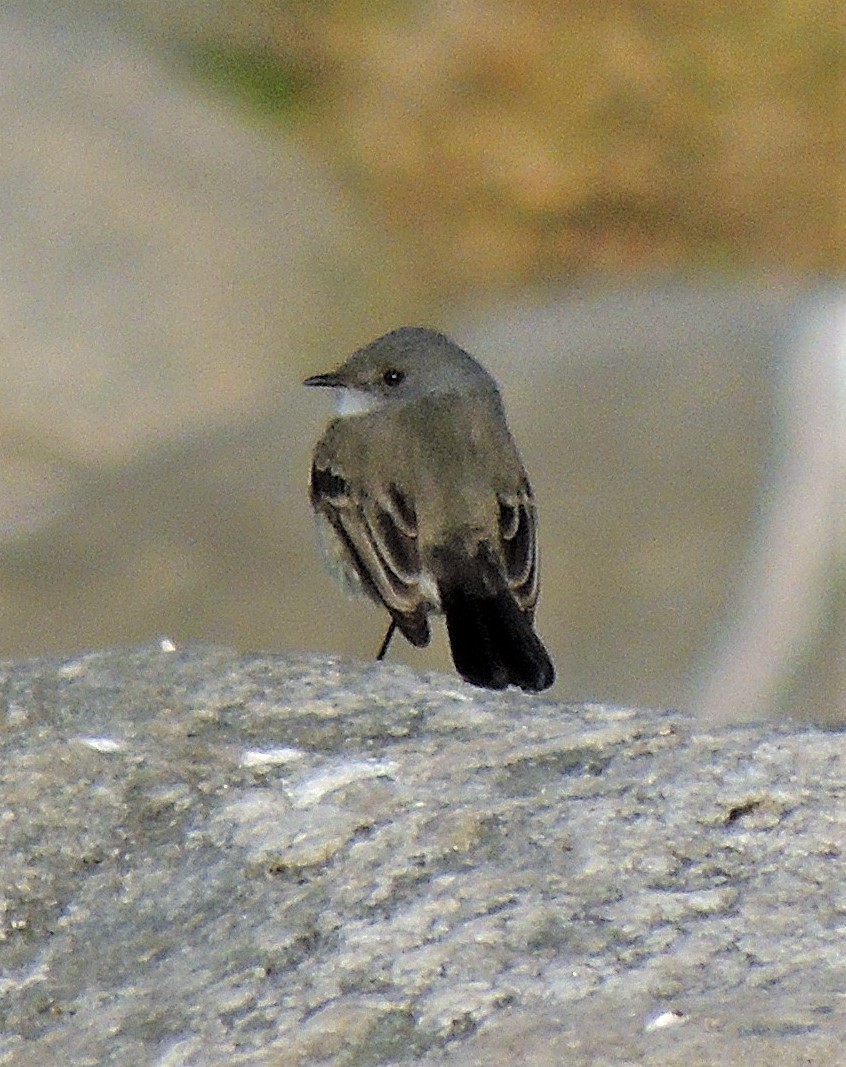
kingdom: Animalia
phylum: Chordata
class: Aves
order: Passeriformes
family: Tyrannidae
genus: Serpophaga
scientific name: Serpophaga nigricans
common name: Sooty tyrannulet
